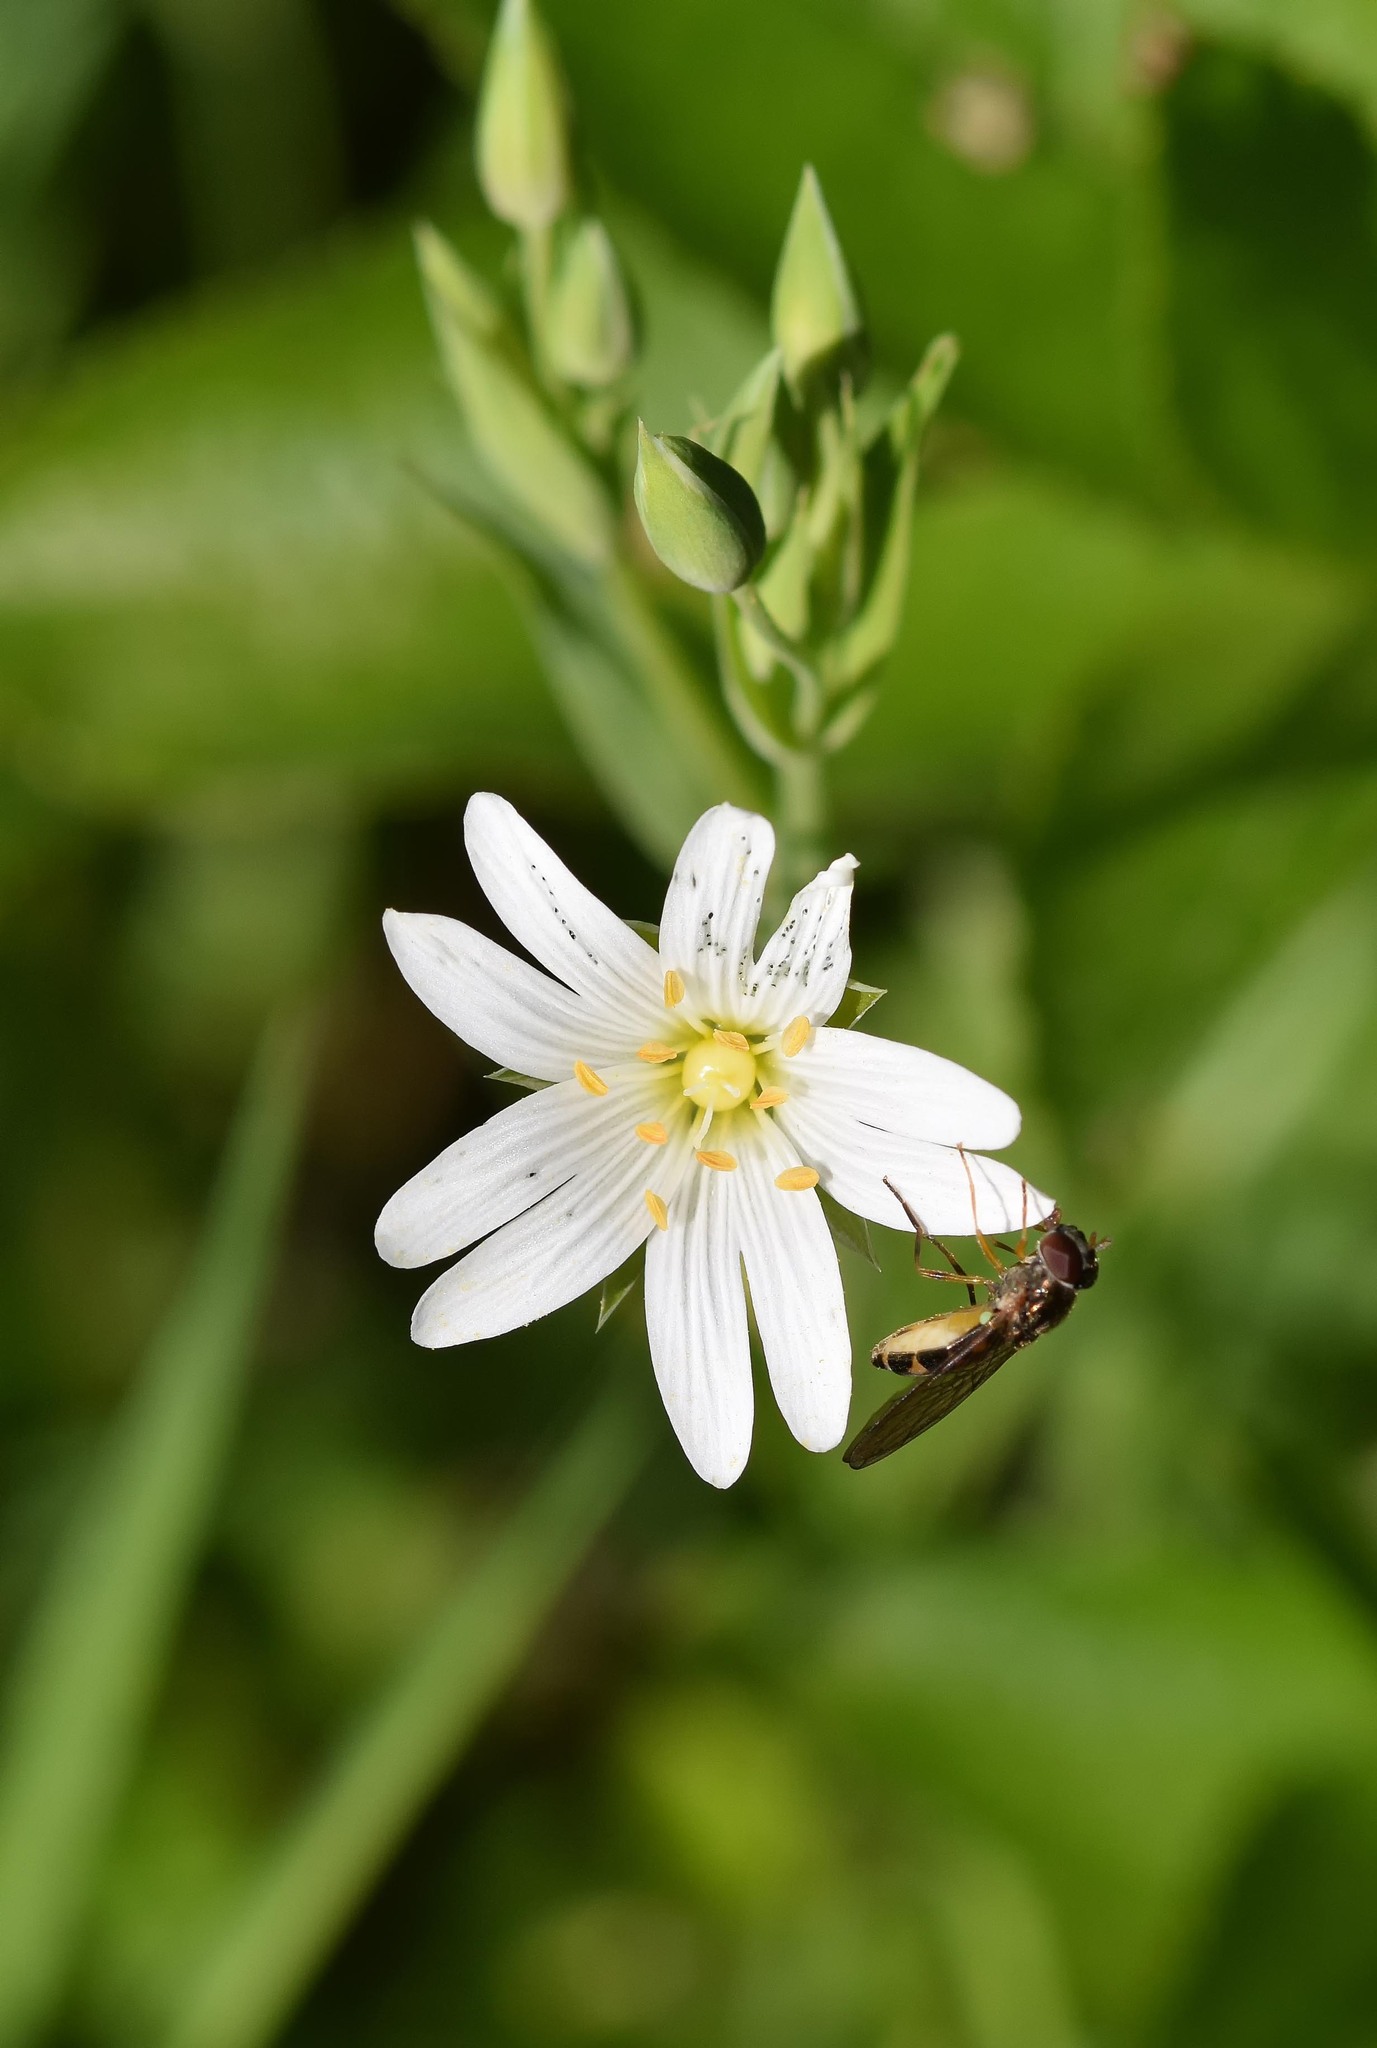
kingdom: Animalia
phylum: Arthropoda
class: Insecta
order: Diptera
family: Syrphidae
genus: Melanostoma
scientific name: Melanostoma
